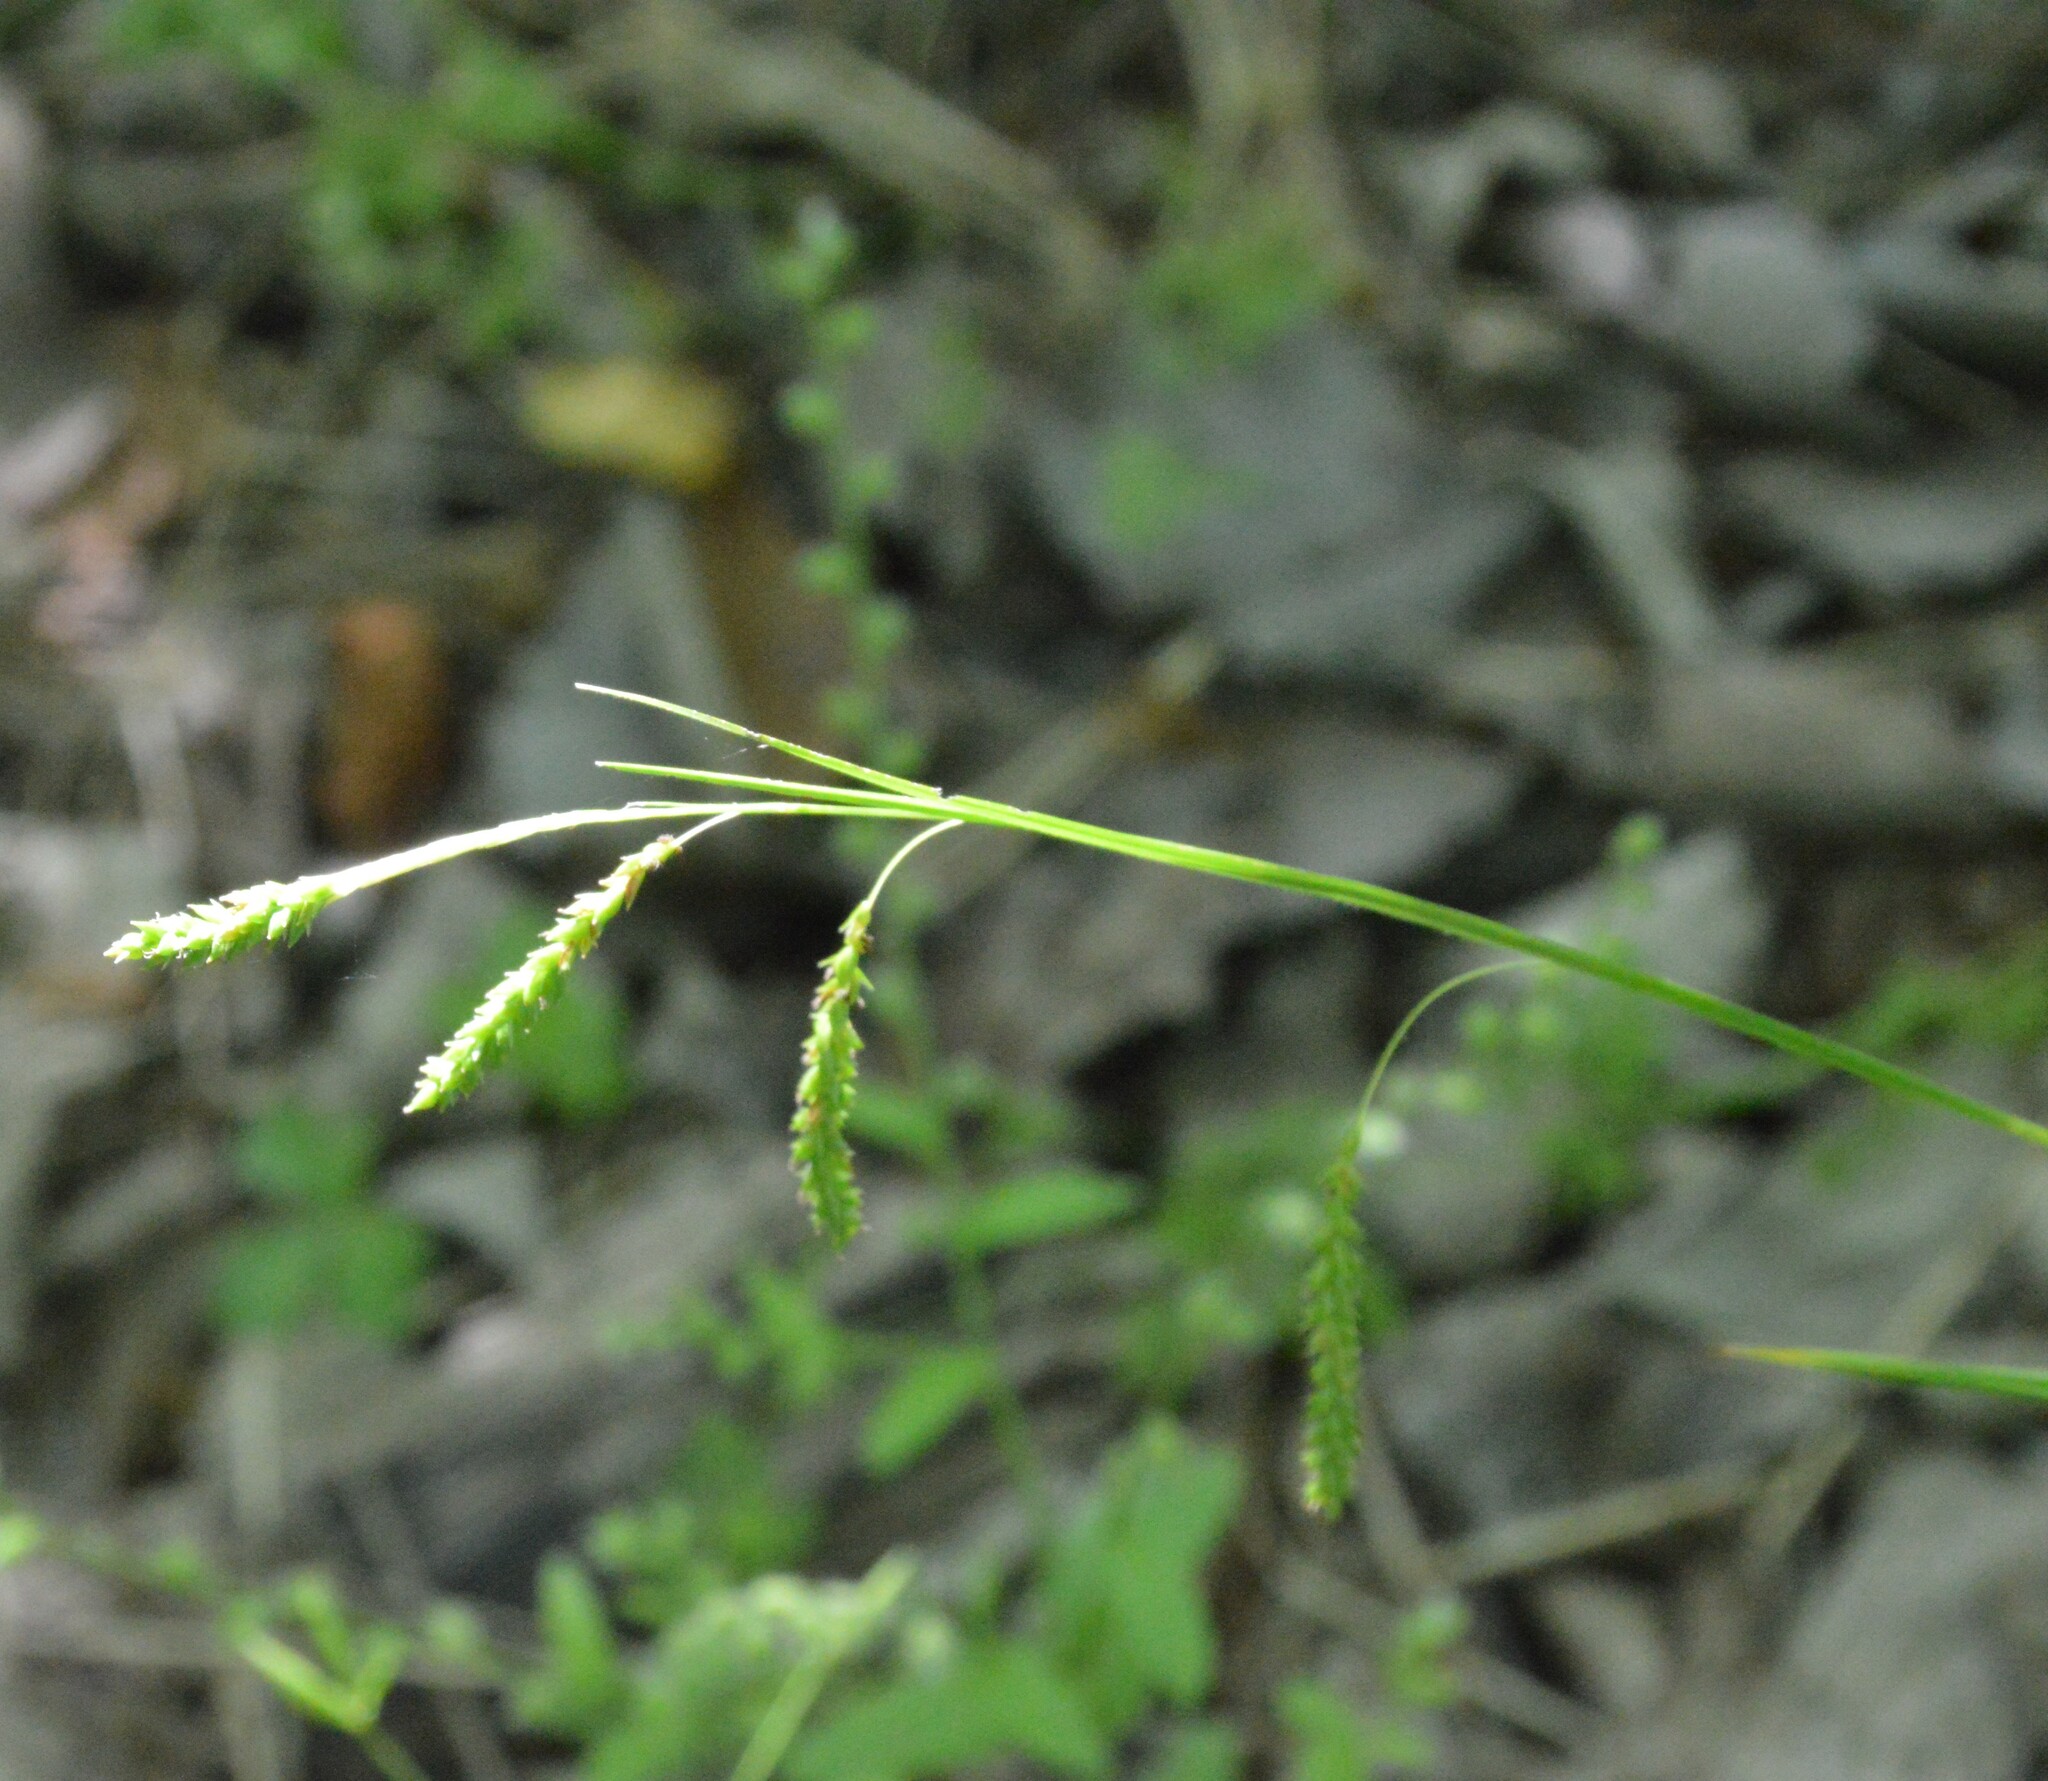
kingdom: Plantae
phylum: Tracheophyta
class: Liliopsida
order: Poales
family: Cyperaceae
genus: Carex
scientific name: Carex oxylepis
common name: Sharpscale sedge
